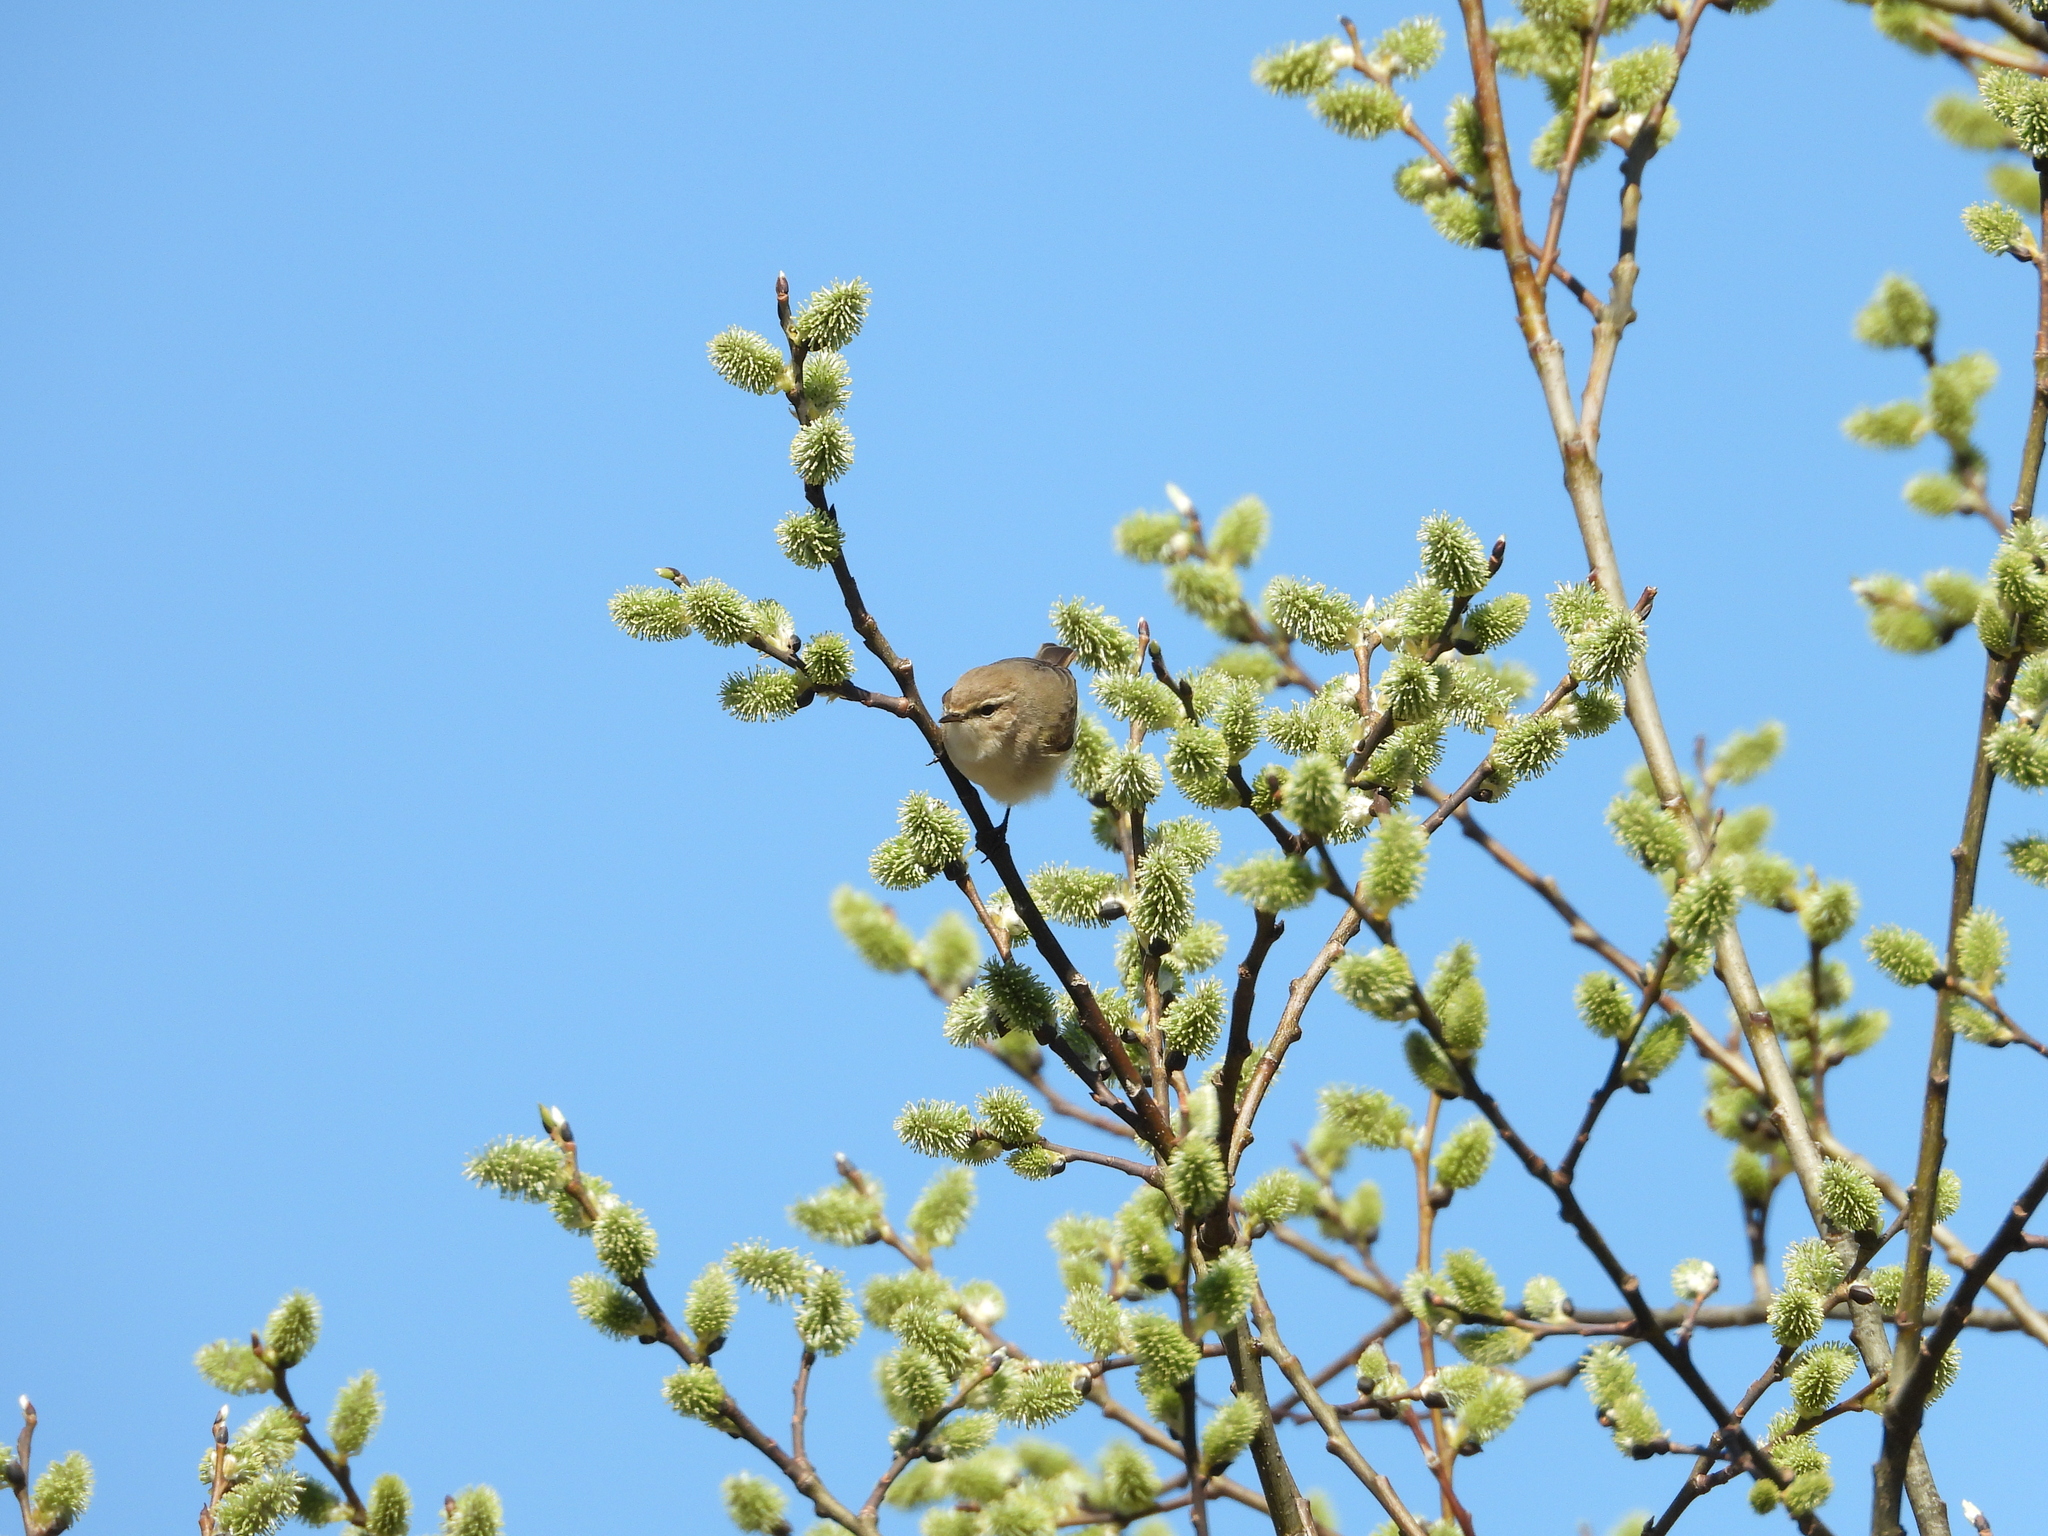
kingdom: Animalia
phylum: Chordata
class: Aves
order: Passeriformes
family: Phylloscopidae
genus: Phylloscopus
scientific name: Phylloscopus collybita
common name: Common chiffchaff
